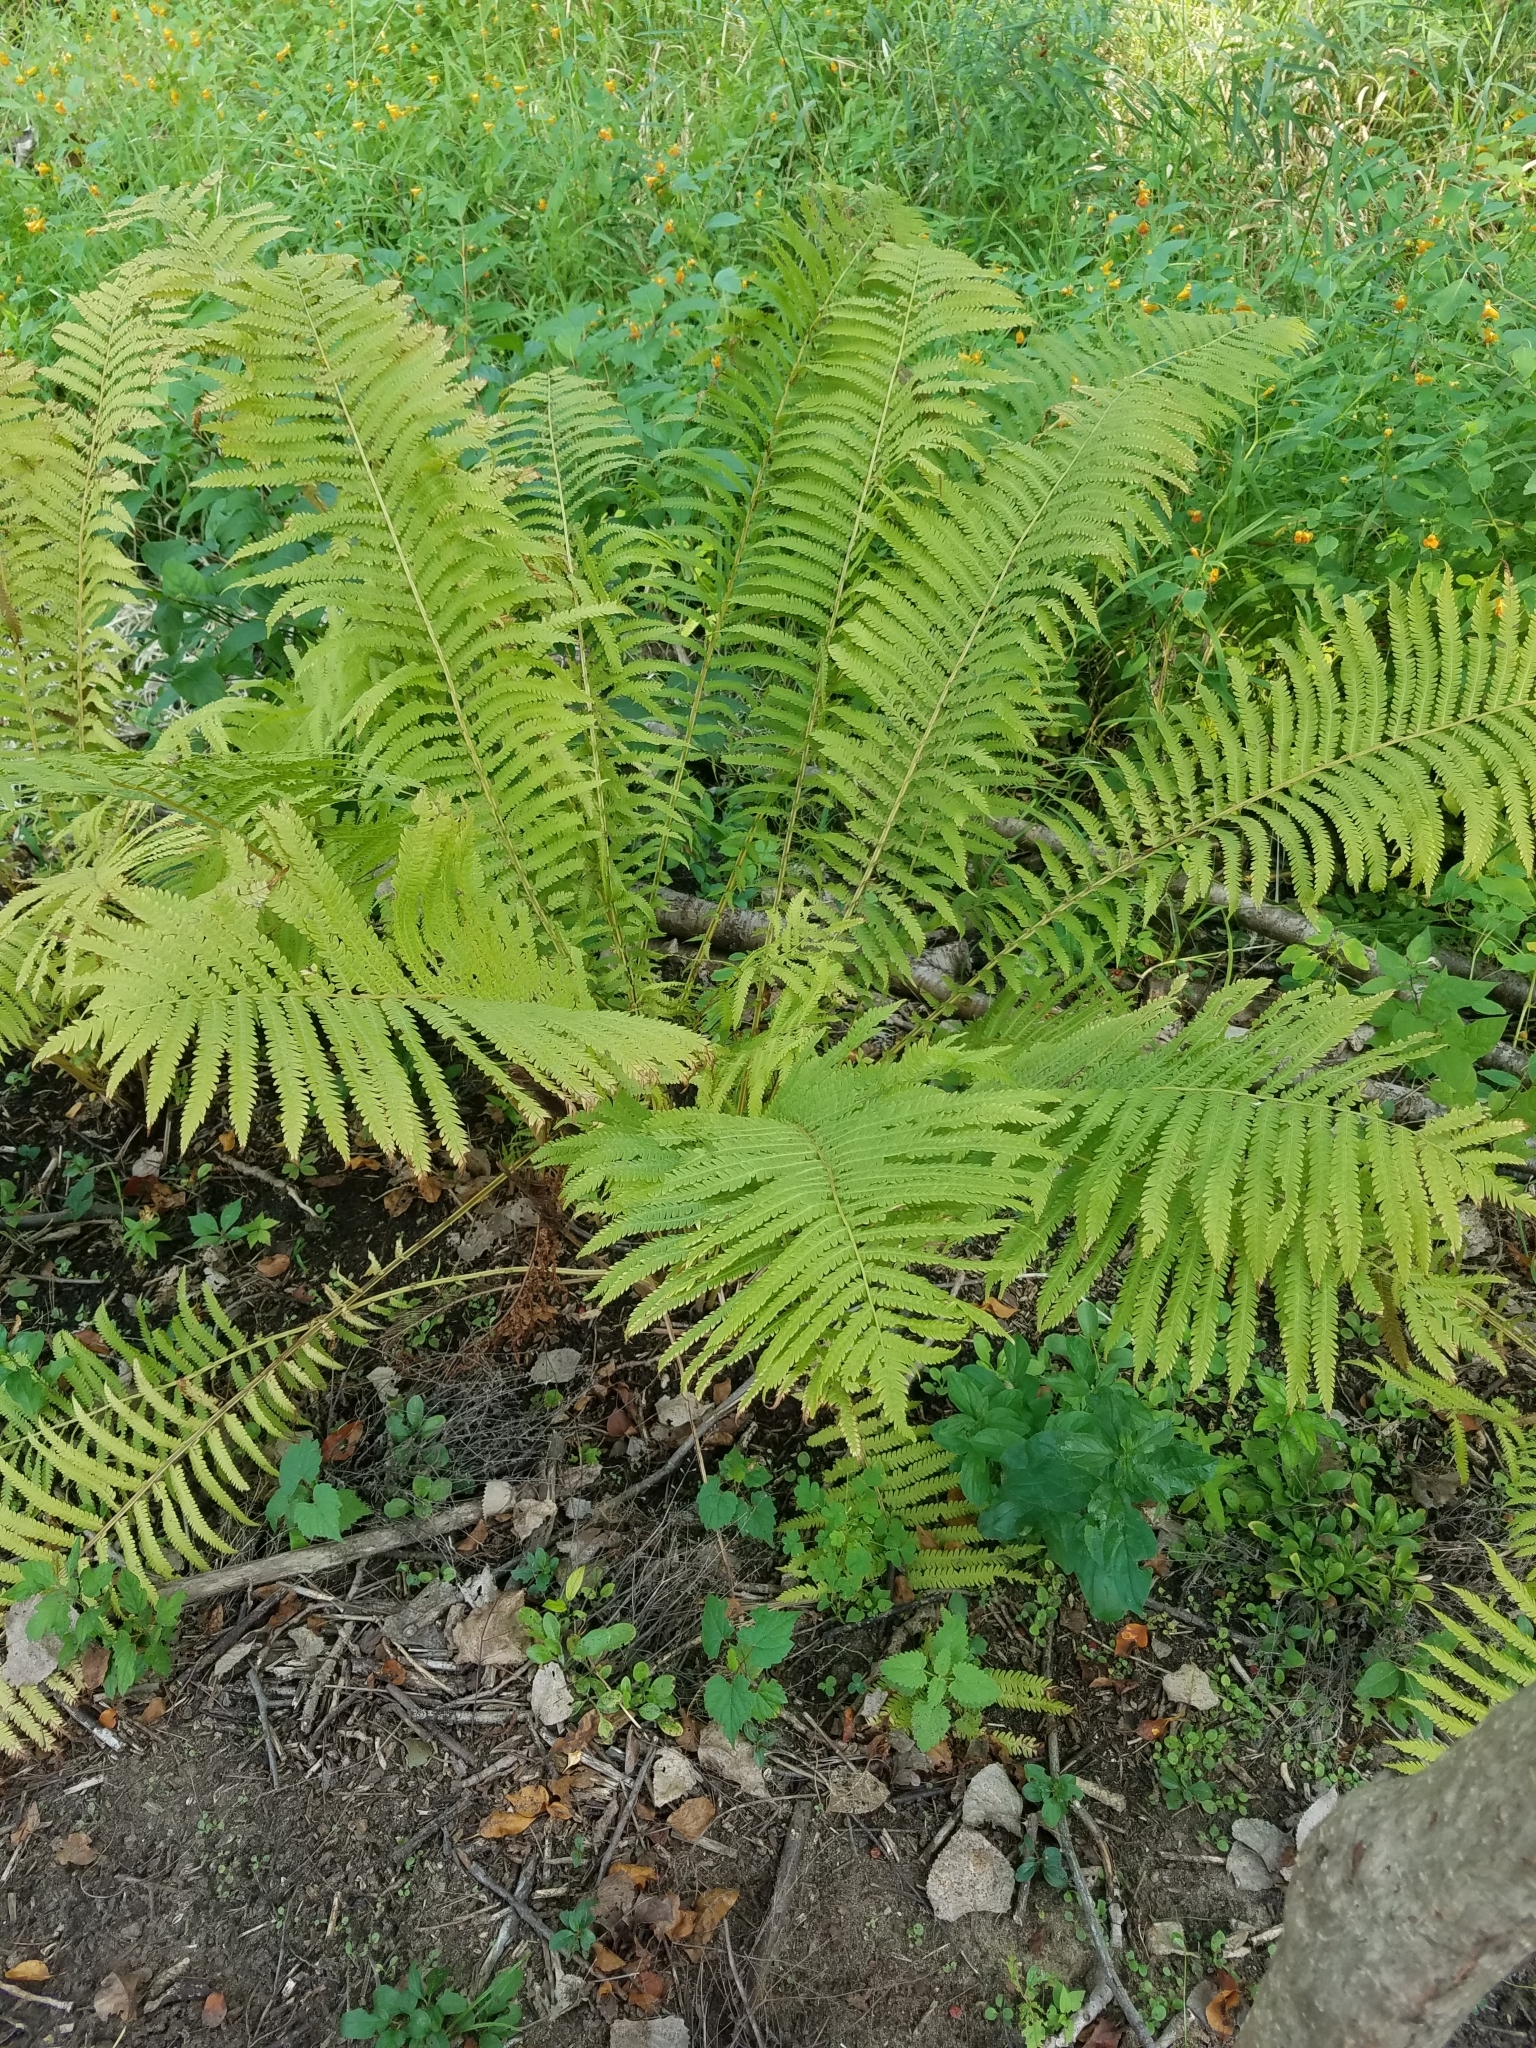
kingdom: Plantae
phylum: Tracheophyta
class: Polypodiopsida
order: Polypodiales
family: Onocleaceae
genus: Matteuccia
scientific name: Matteuccia struthiopteris
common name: Ostrich fern
